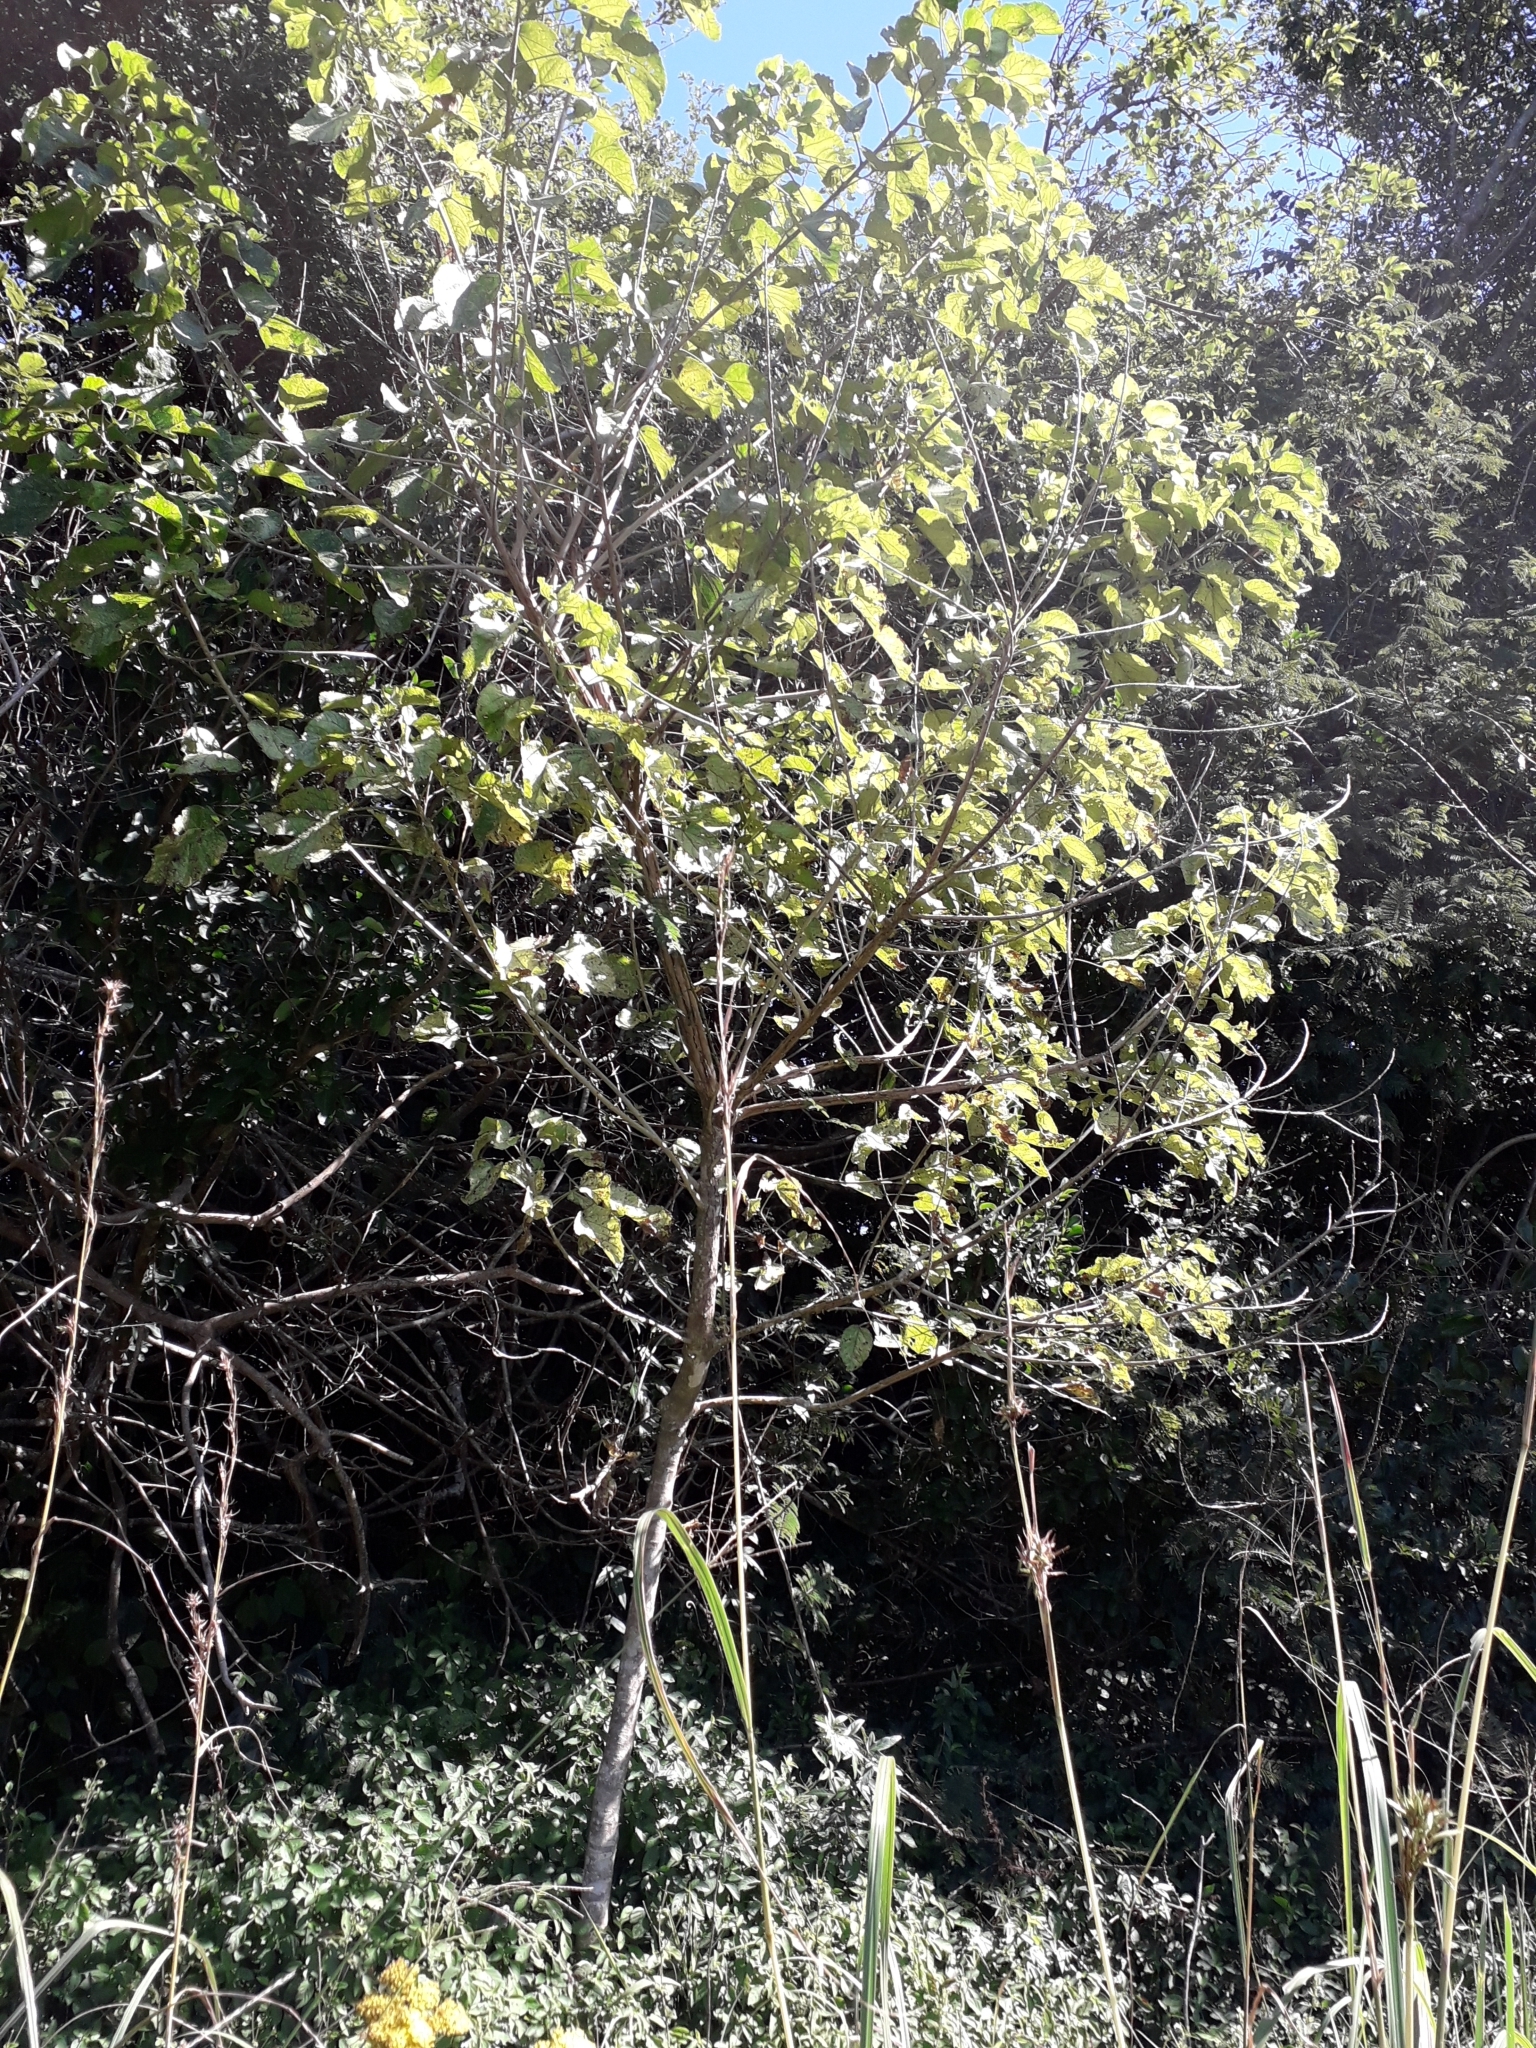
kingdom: Plantae
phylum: Tracheophyta
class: Magnoliopsida
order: Malpighiales
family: Euphorbiaceae
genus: Croton
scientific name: Croton sylvaticus
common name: Forest croton
